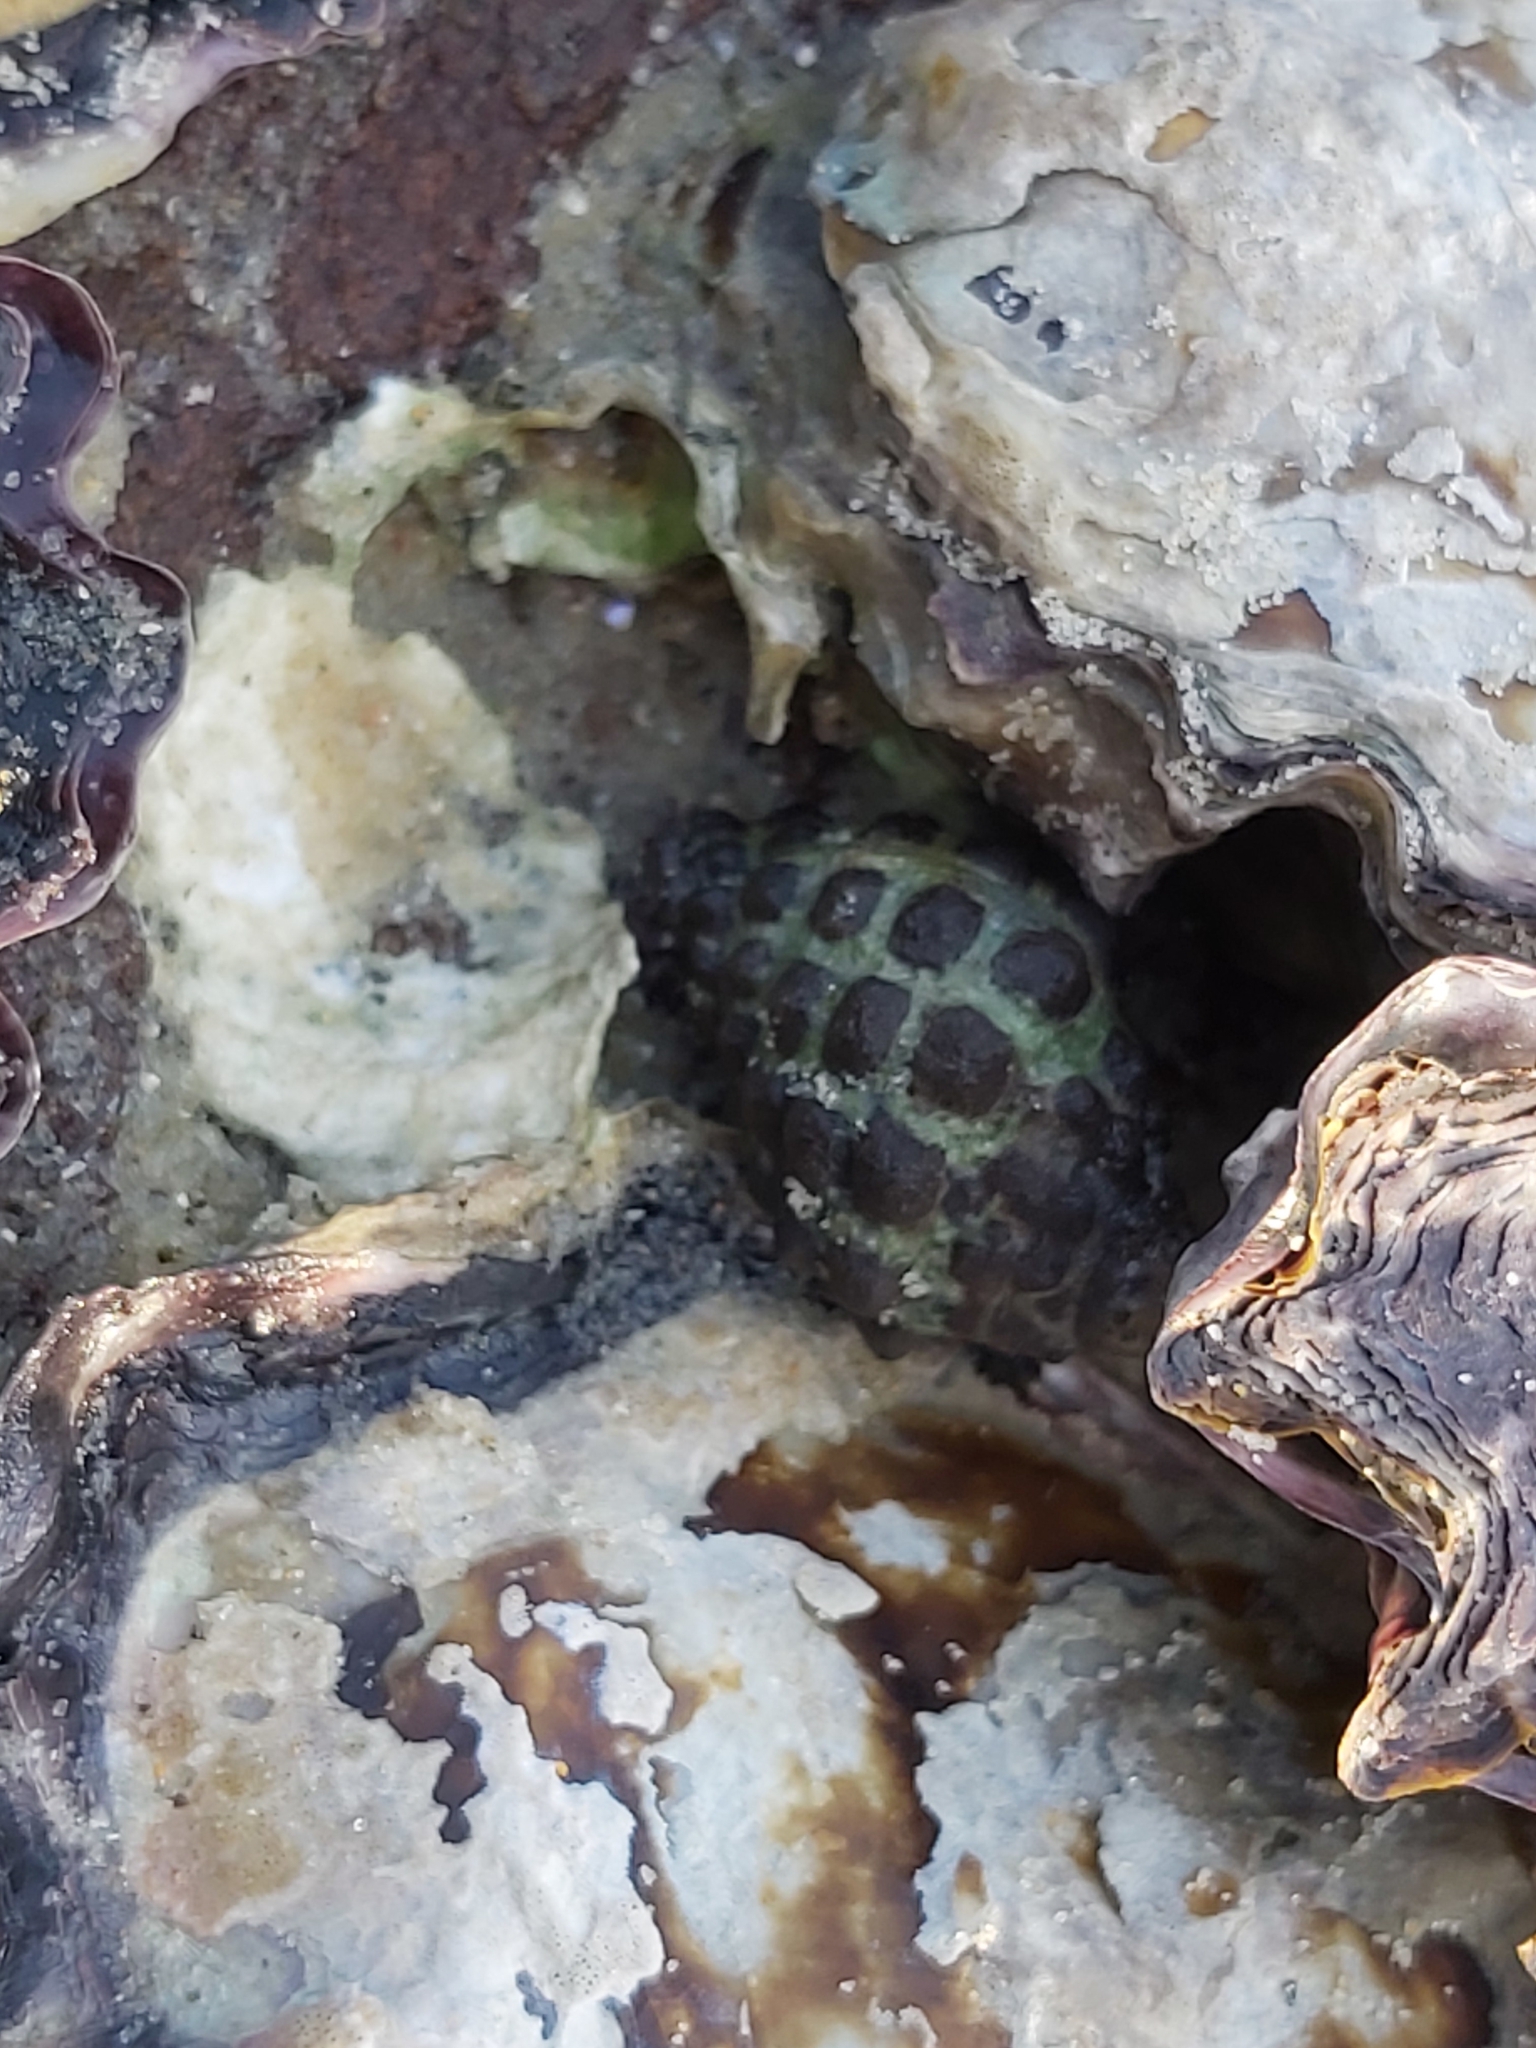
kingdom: Animalia
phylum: Mollusca
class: Gastropoda
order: Neogastropoda
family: Muricidae
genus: Tenguella
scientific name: Tenguella marginalba
